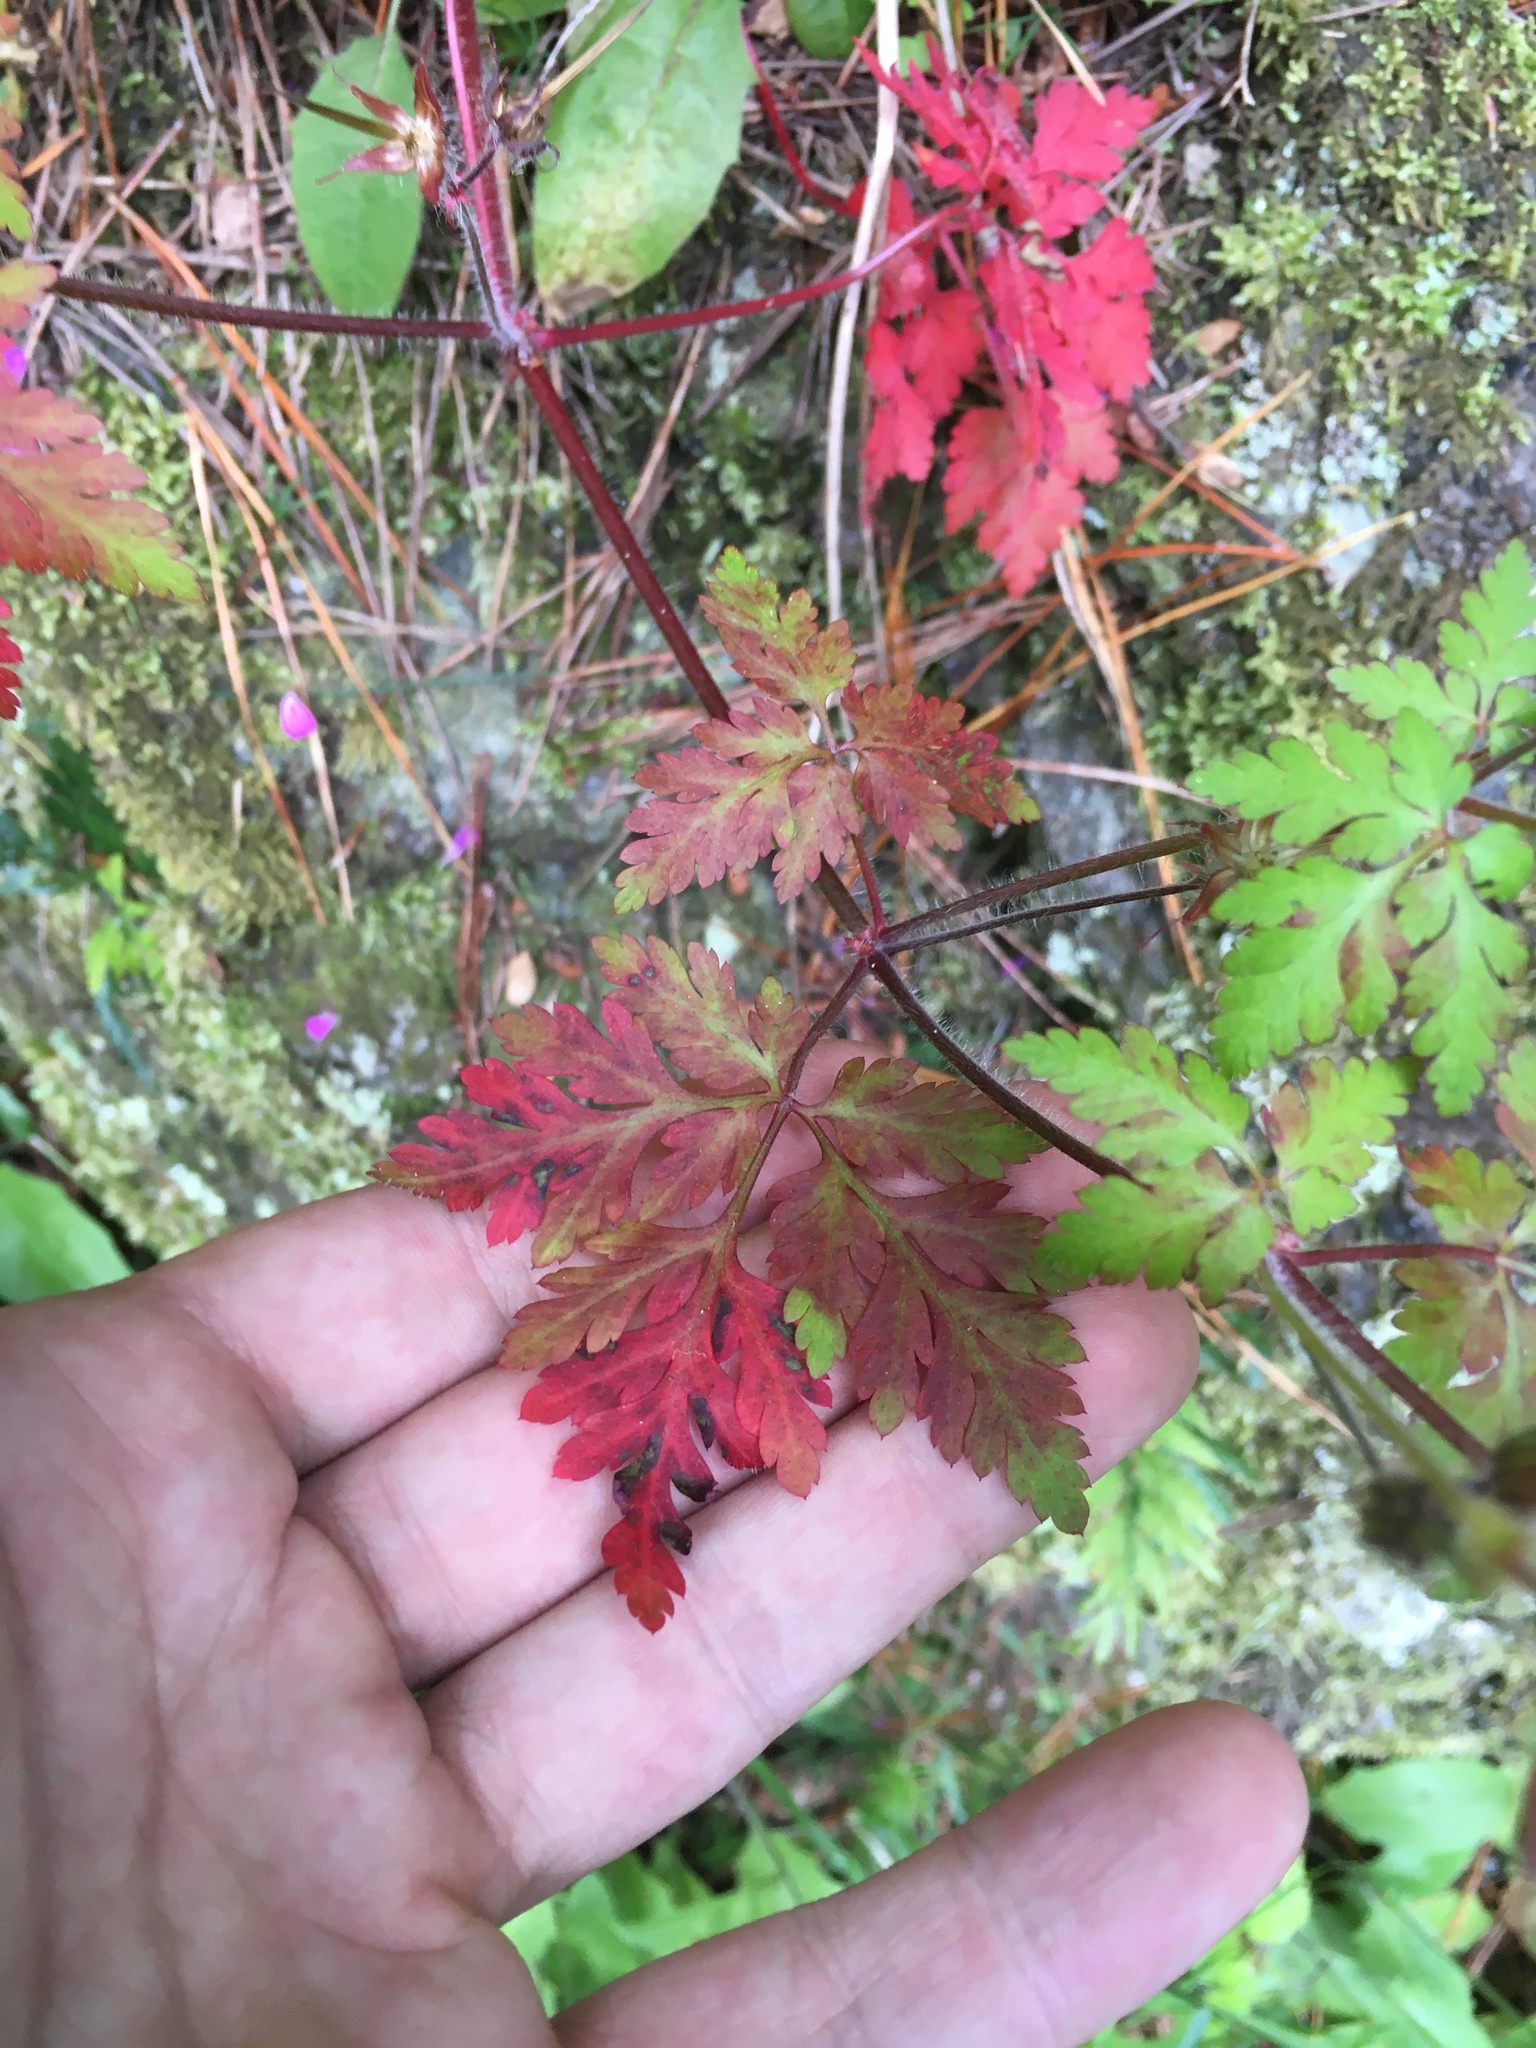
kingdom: Plantae
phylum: Tracheophyta
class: Magnoliopsida
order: Geraniales
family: Geraniaceae
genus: Geranium
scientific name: Geranium robertianum
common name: Herb-robert
